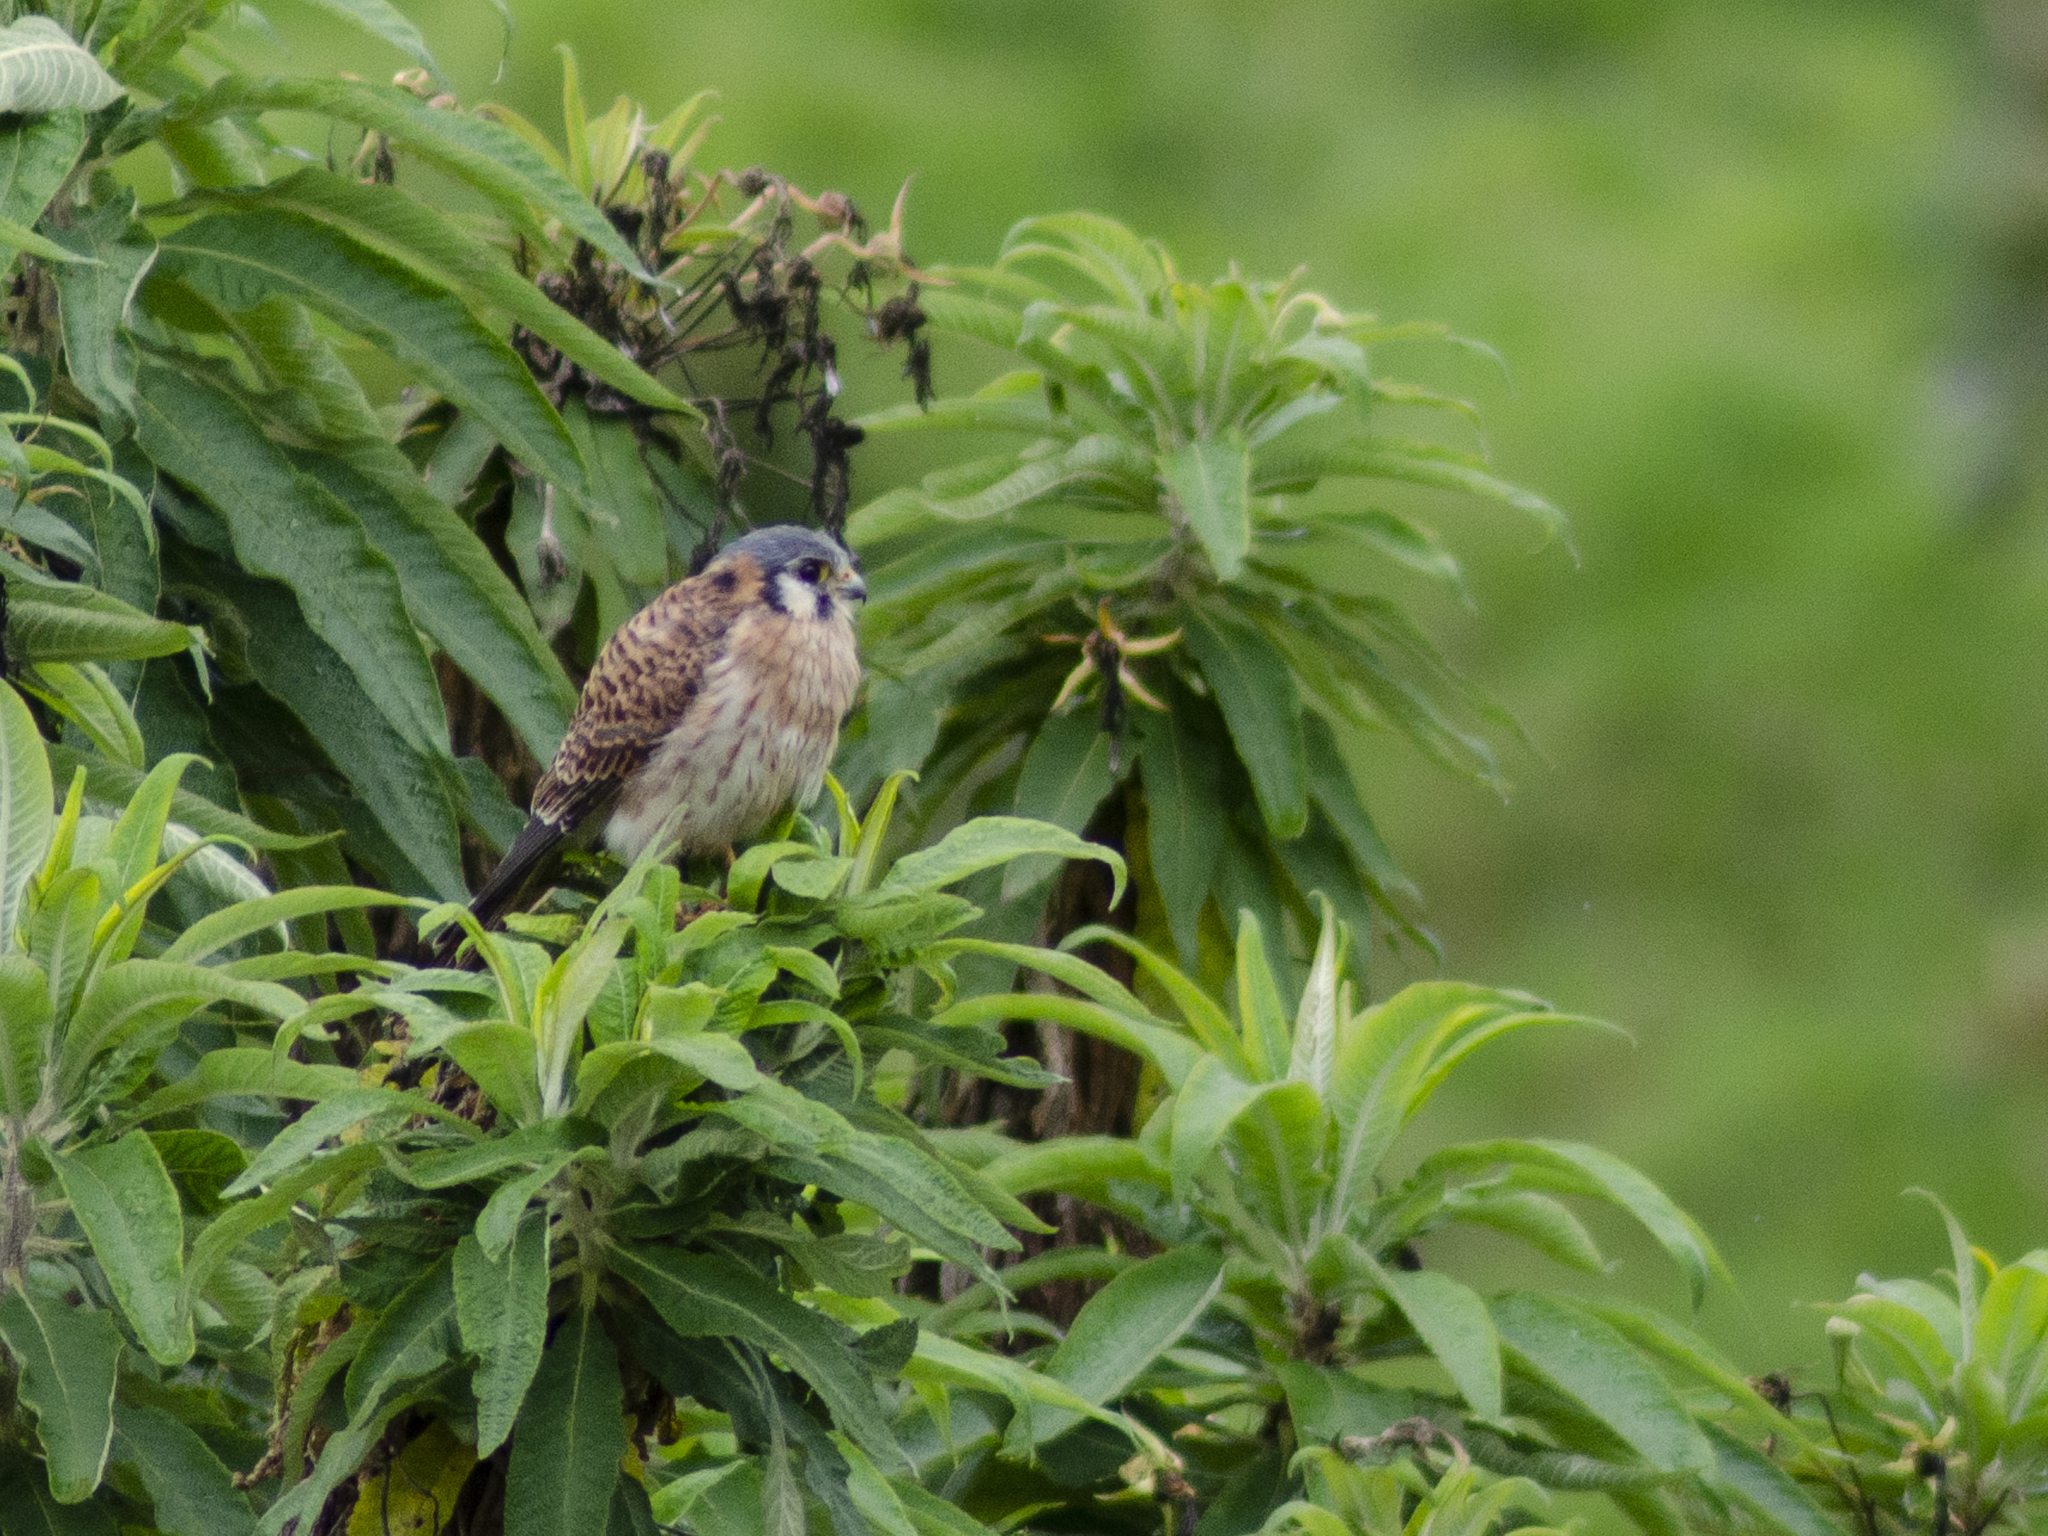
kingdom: Animalia
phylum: Chordata
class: Aves
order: Falconiformes
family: Falconidae
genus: Falco
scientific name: Falco sparverius
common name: American kestrel
